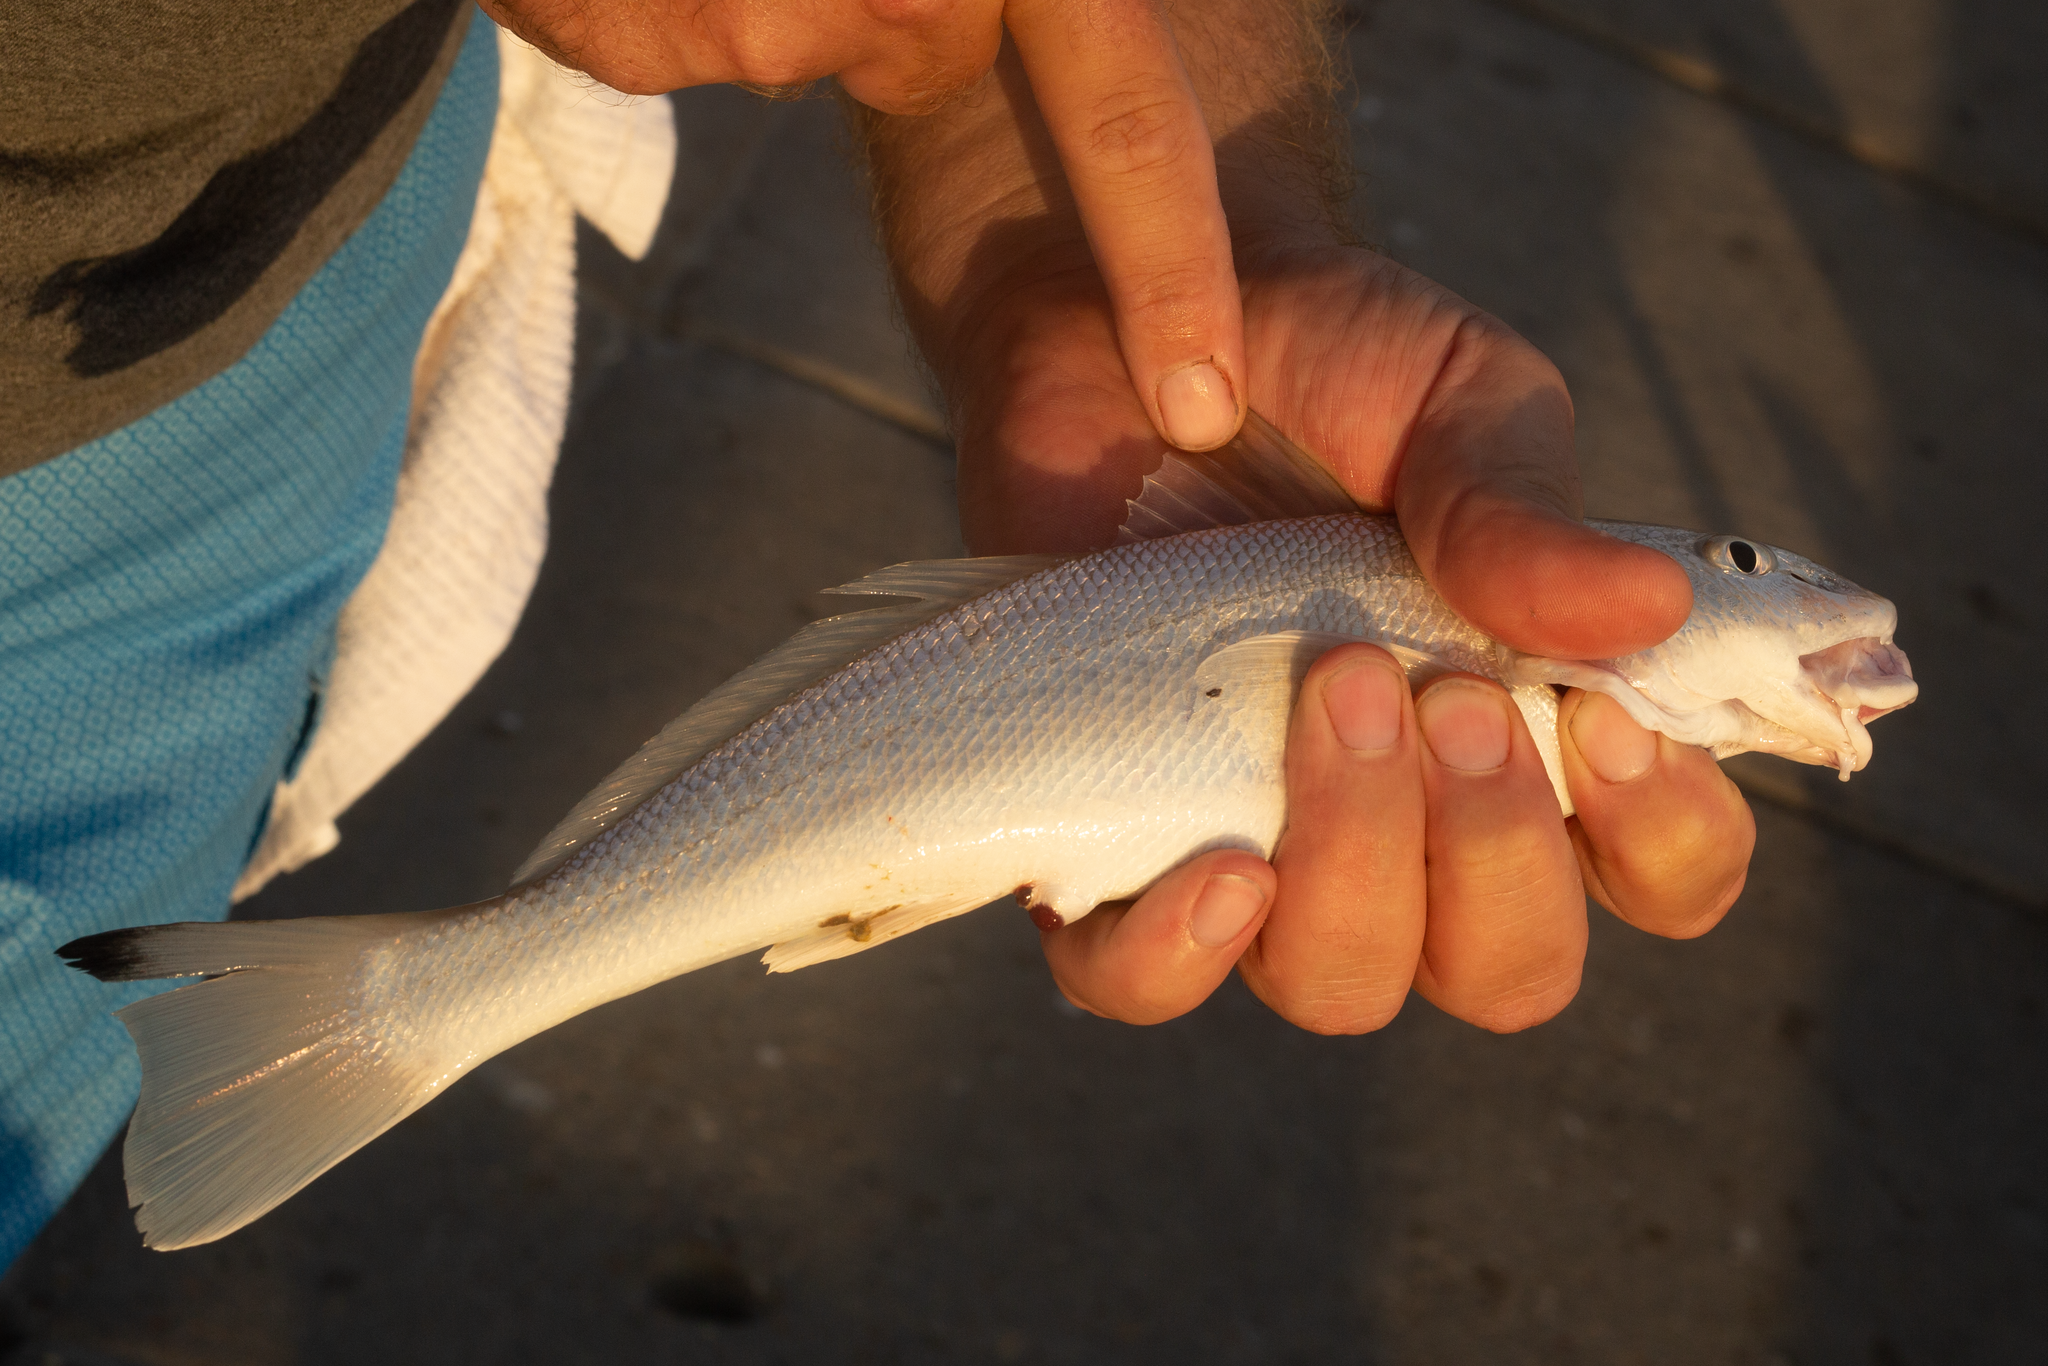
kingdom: Animalia
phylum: Chordata
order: Perciformes
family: Sciaenidae
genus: Menticirrhus
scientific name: Menticirrhus littoralis
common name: Gulf kingcroaker
